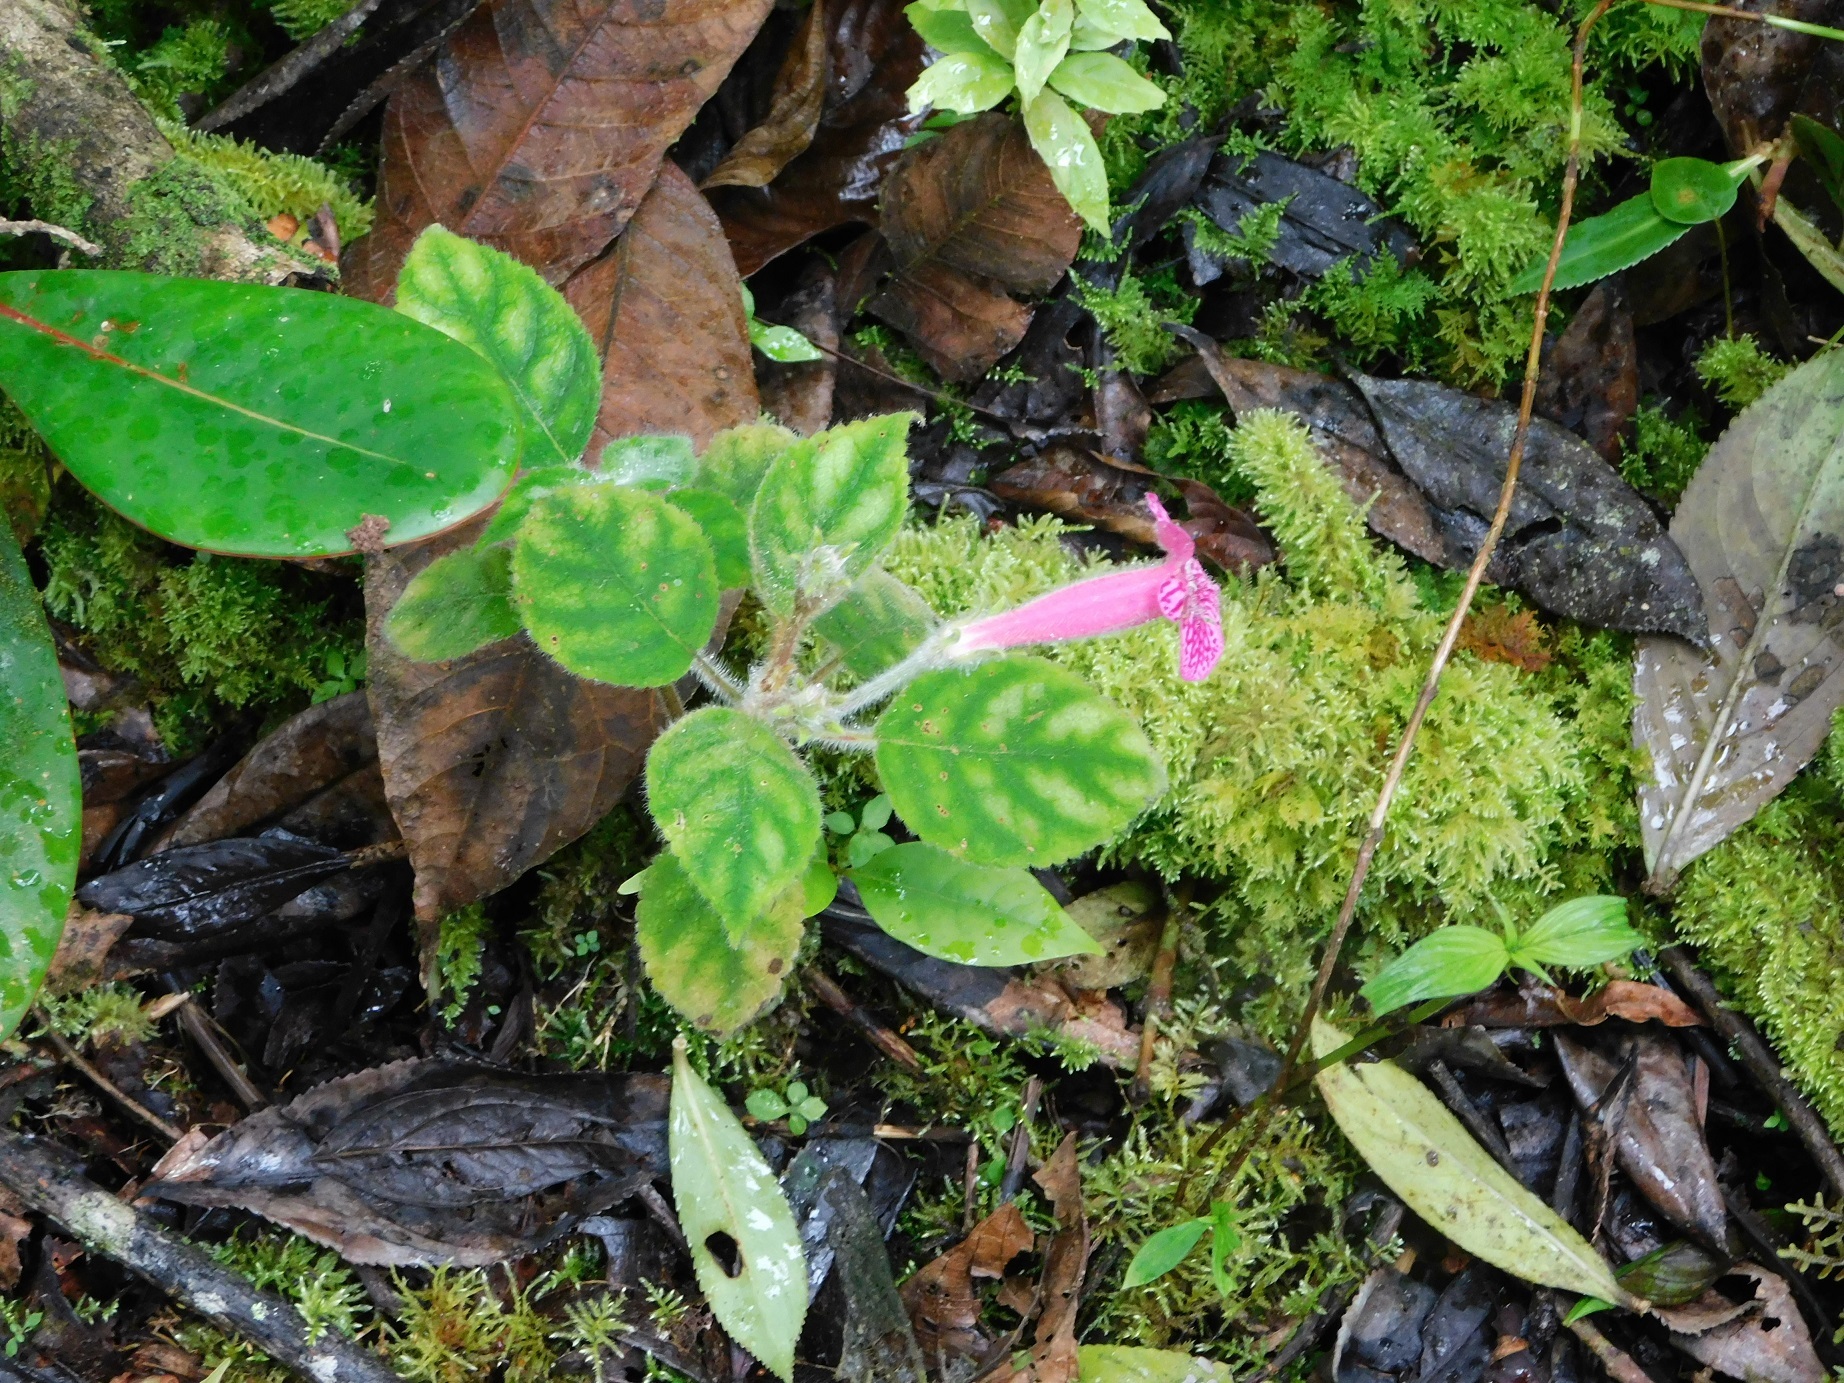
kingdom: Plantae
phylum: Tracheophyta
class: Magnoliopsida
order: Lamiales
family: Gesneriaceae
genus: Kohleria
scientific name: Kohleria amabilis
